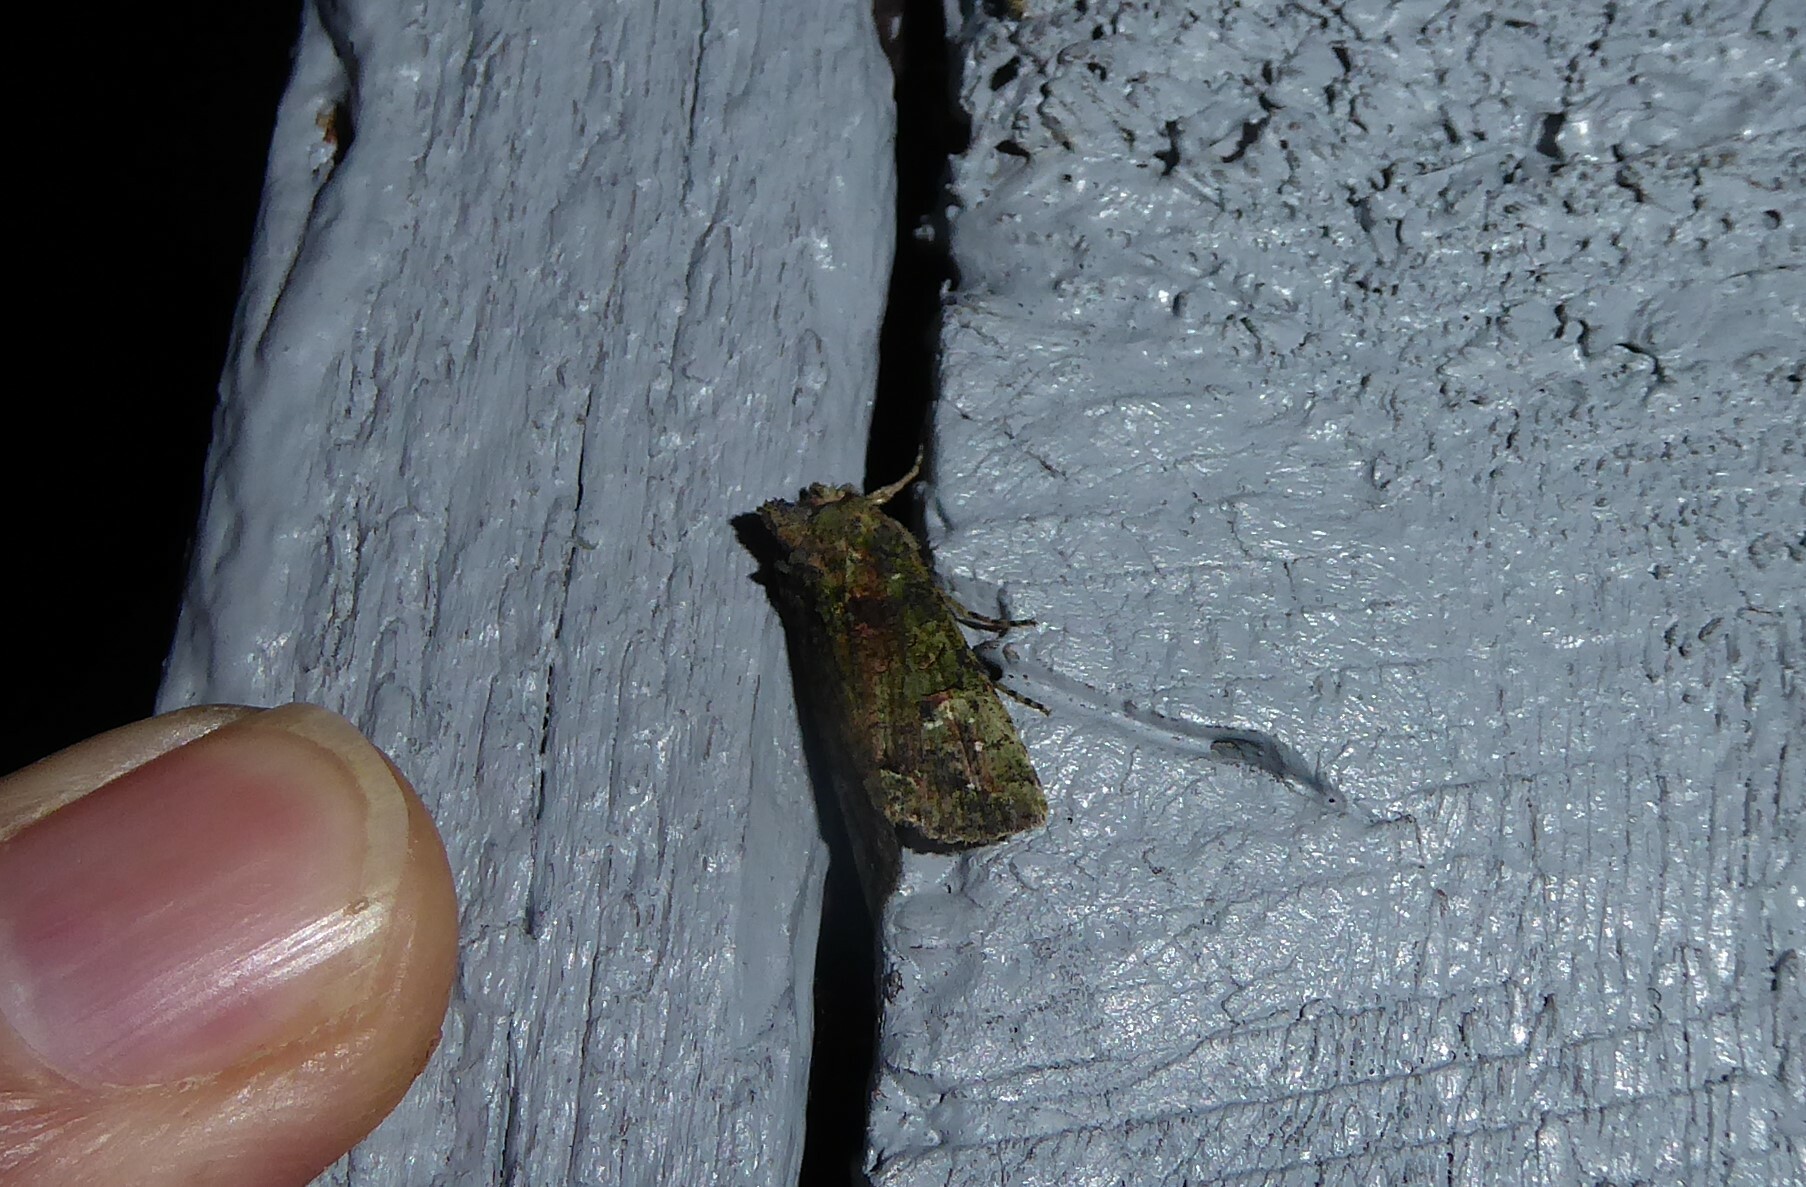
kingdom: Animalia
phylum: Arthropoda
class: Insecta
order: Lepidoptera
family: Noctuidae
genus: Meterana
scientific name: Meterana levis
